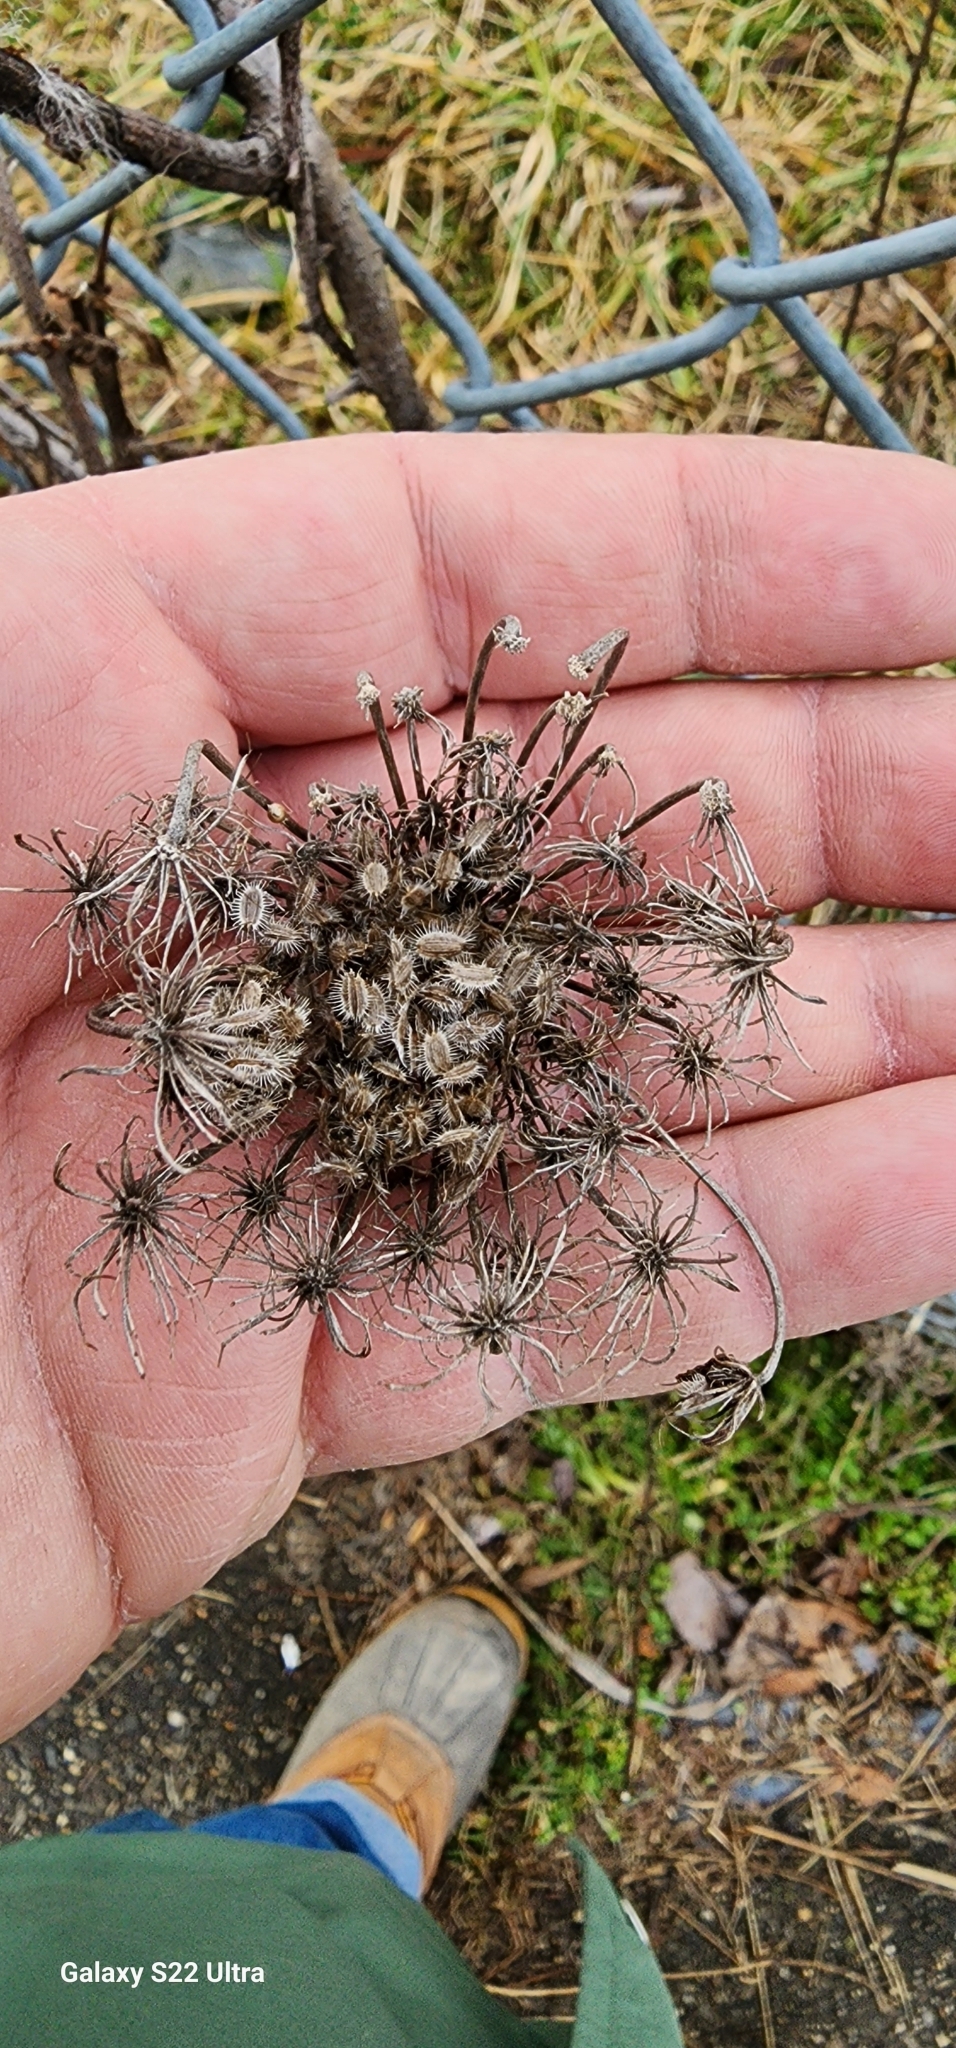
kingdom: Plantae
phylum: Tracheophyta
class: Magnoliopsida
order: Apiales
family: Apiaceae
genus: Daucus
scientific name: Daucus carota
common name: Wild carrot
